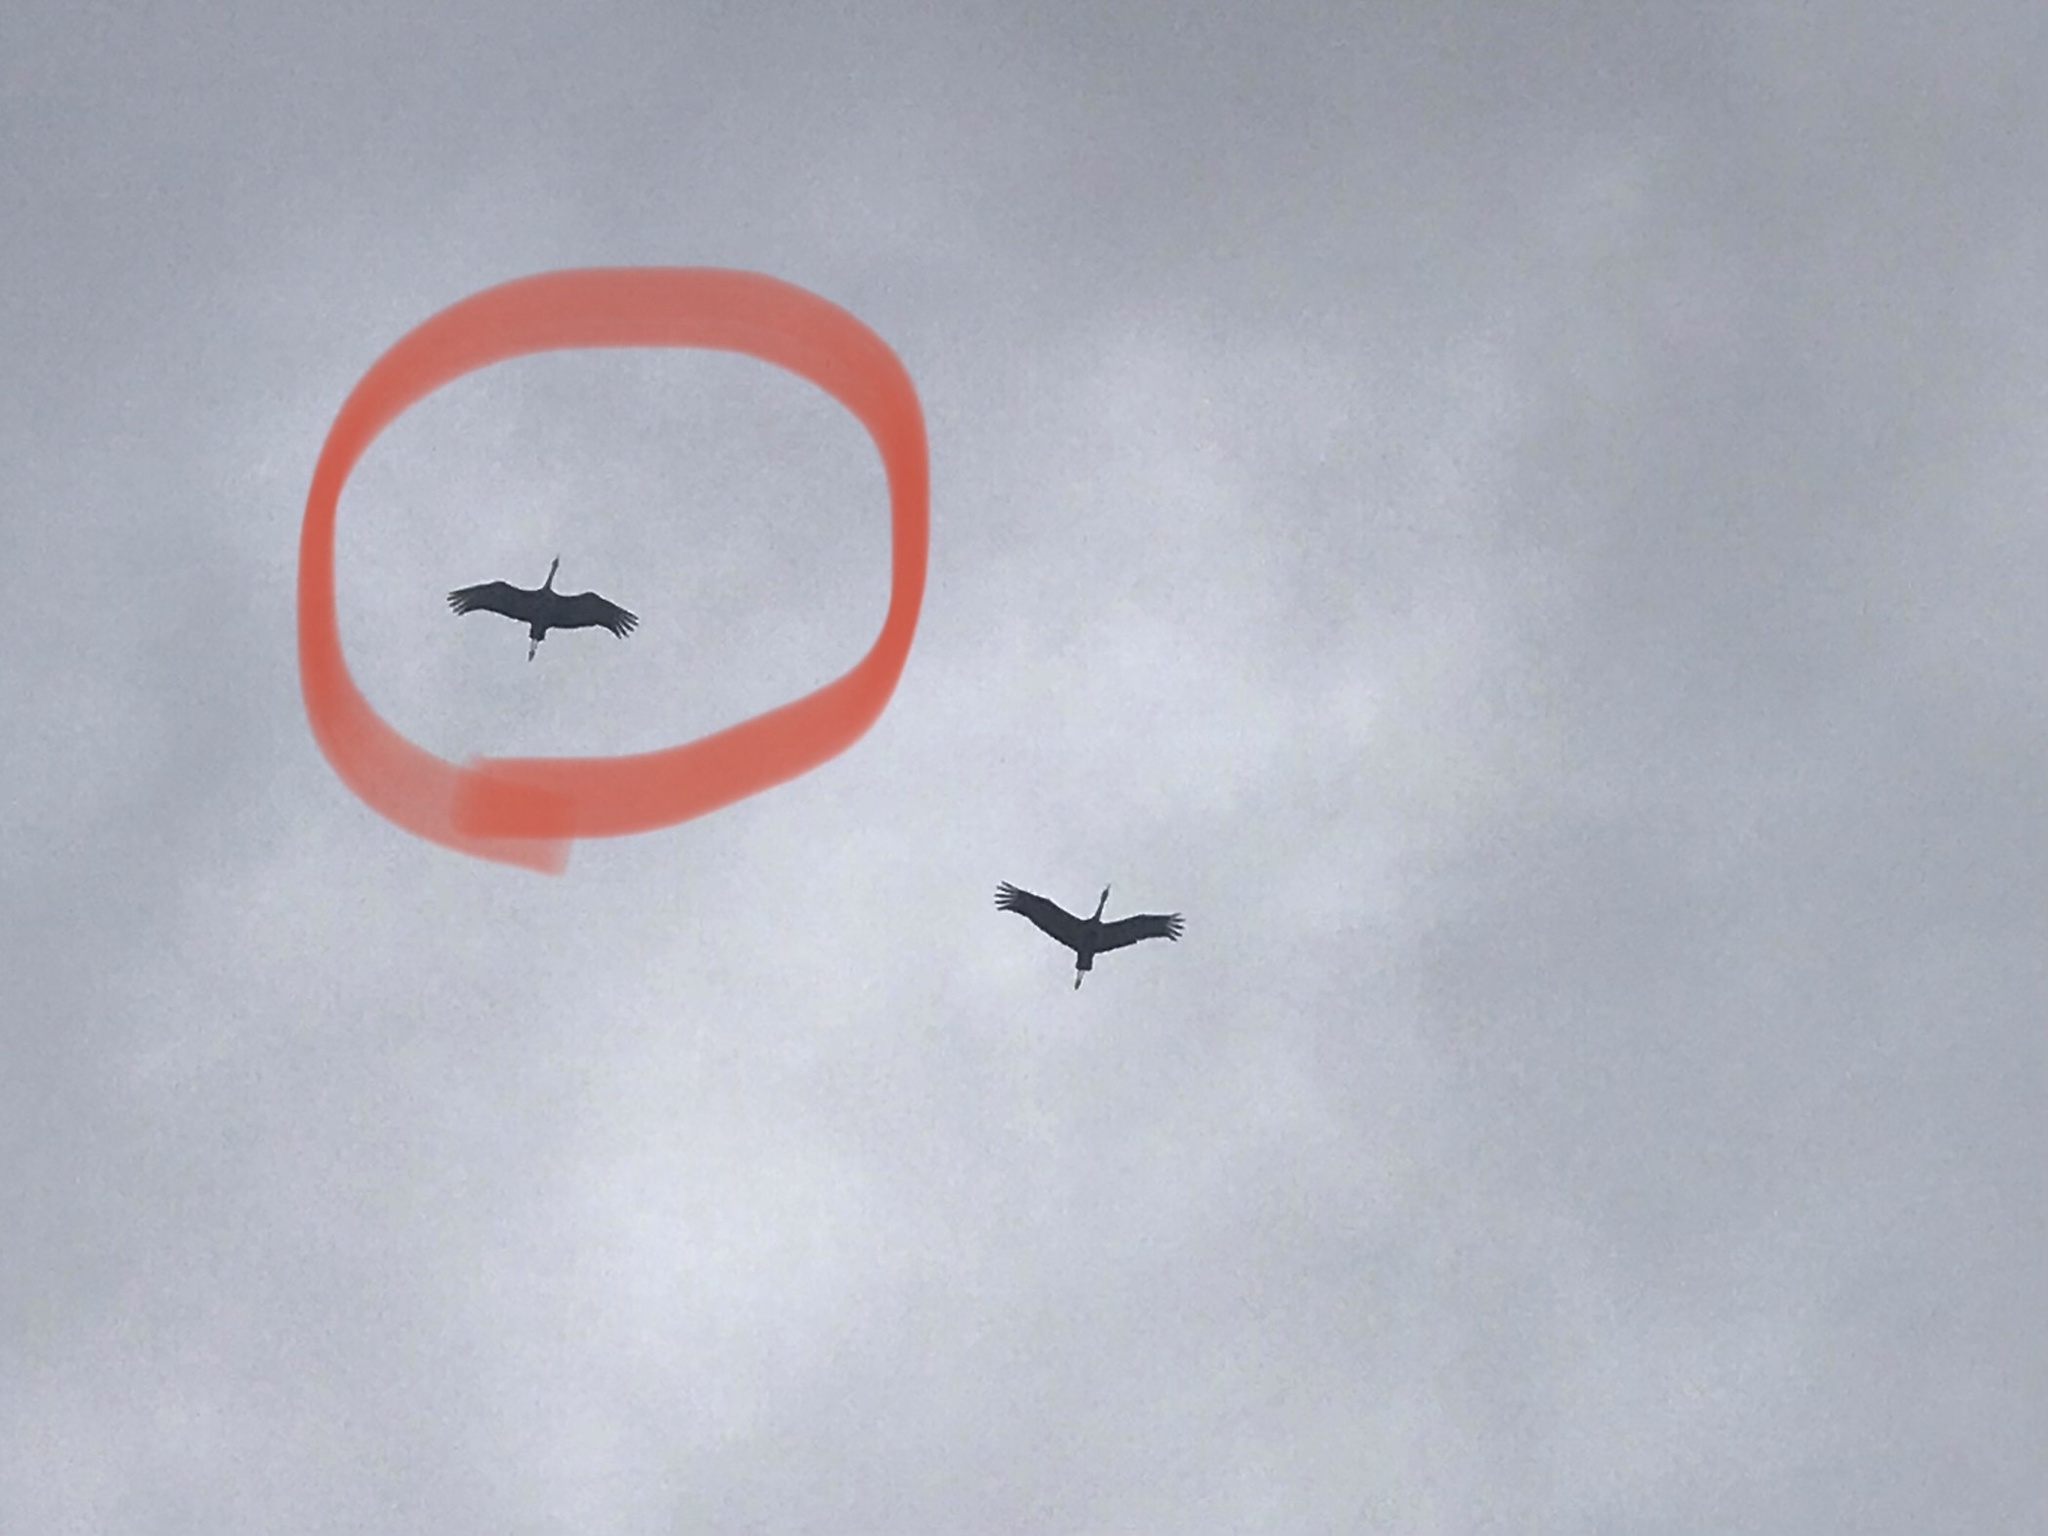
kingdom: Animalia
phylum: Chordata
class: Aves
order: Gruiformes
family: Gruidae
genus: Grus
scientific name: Grus canadensis
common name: Sandhill crane
